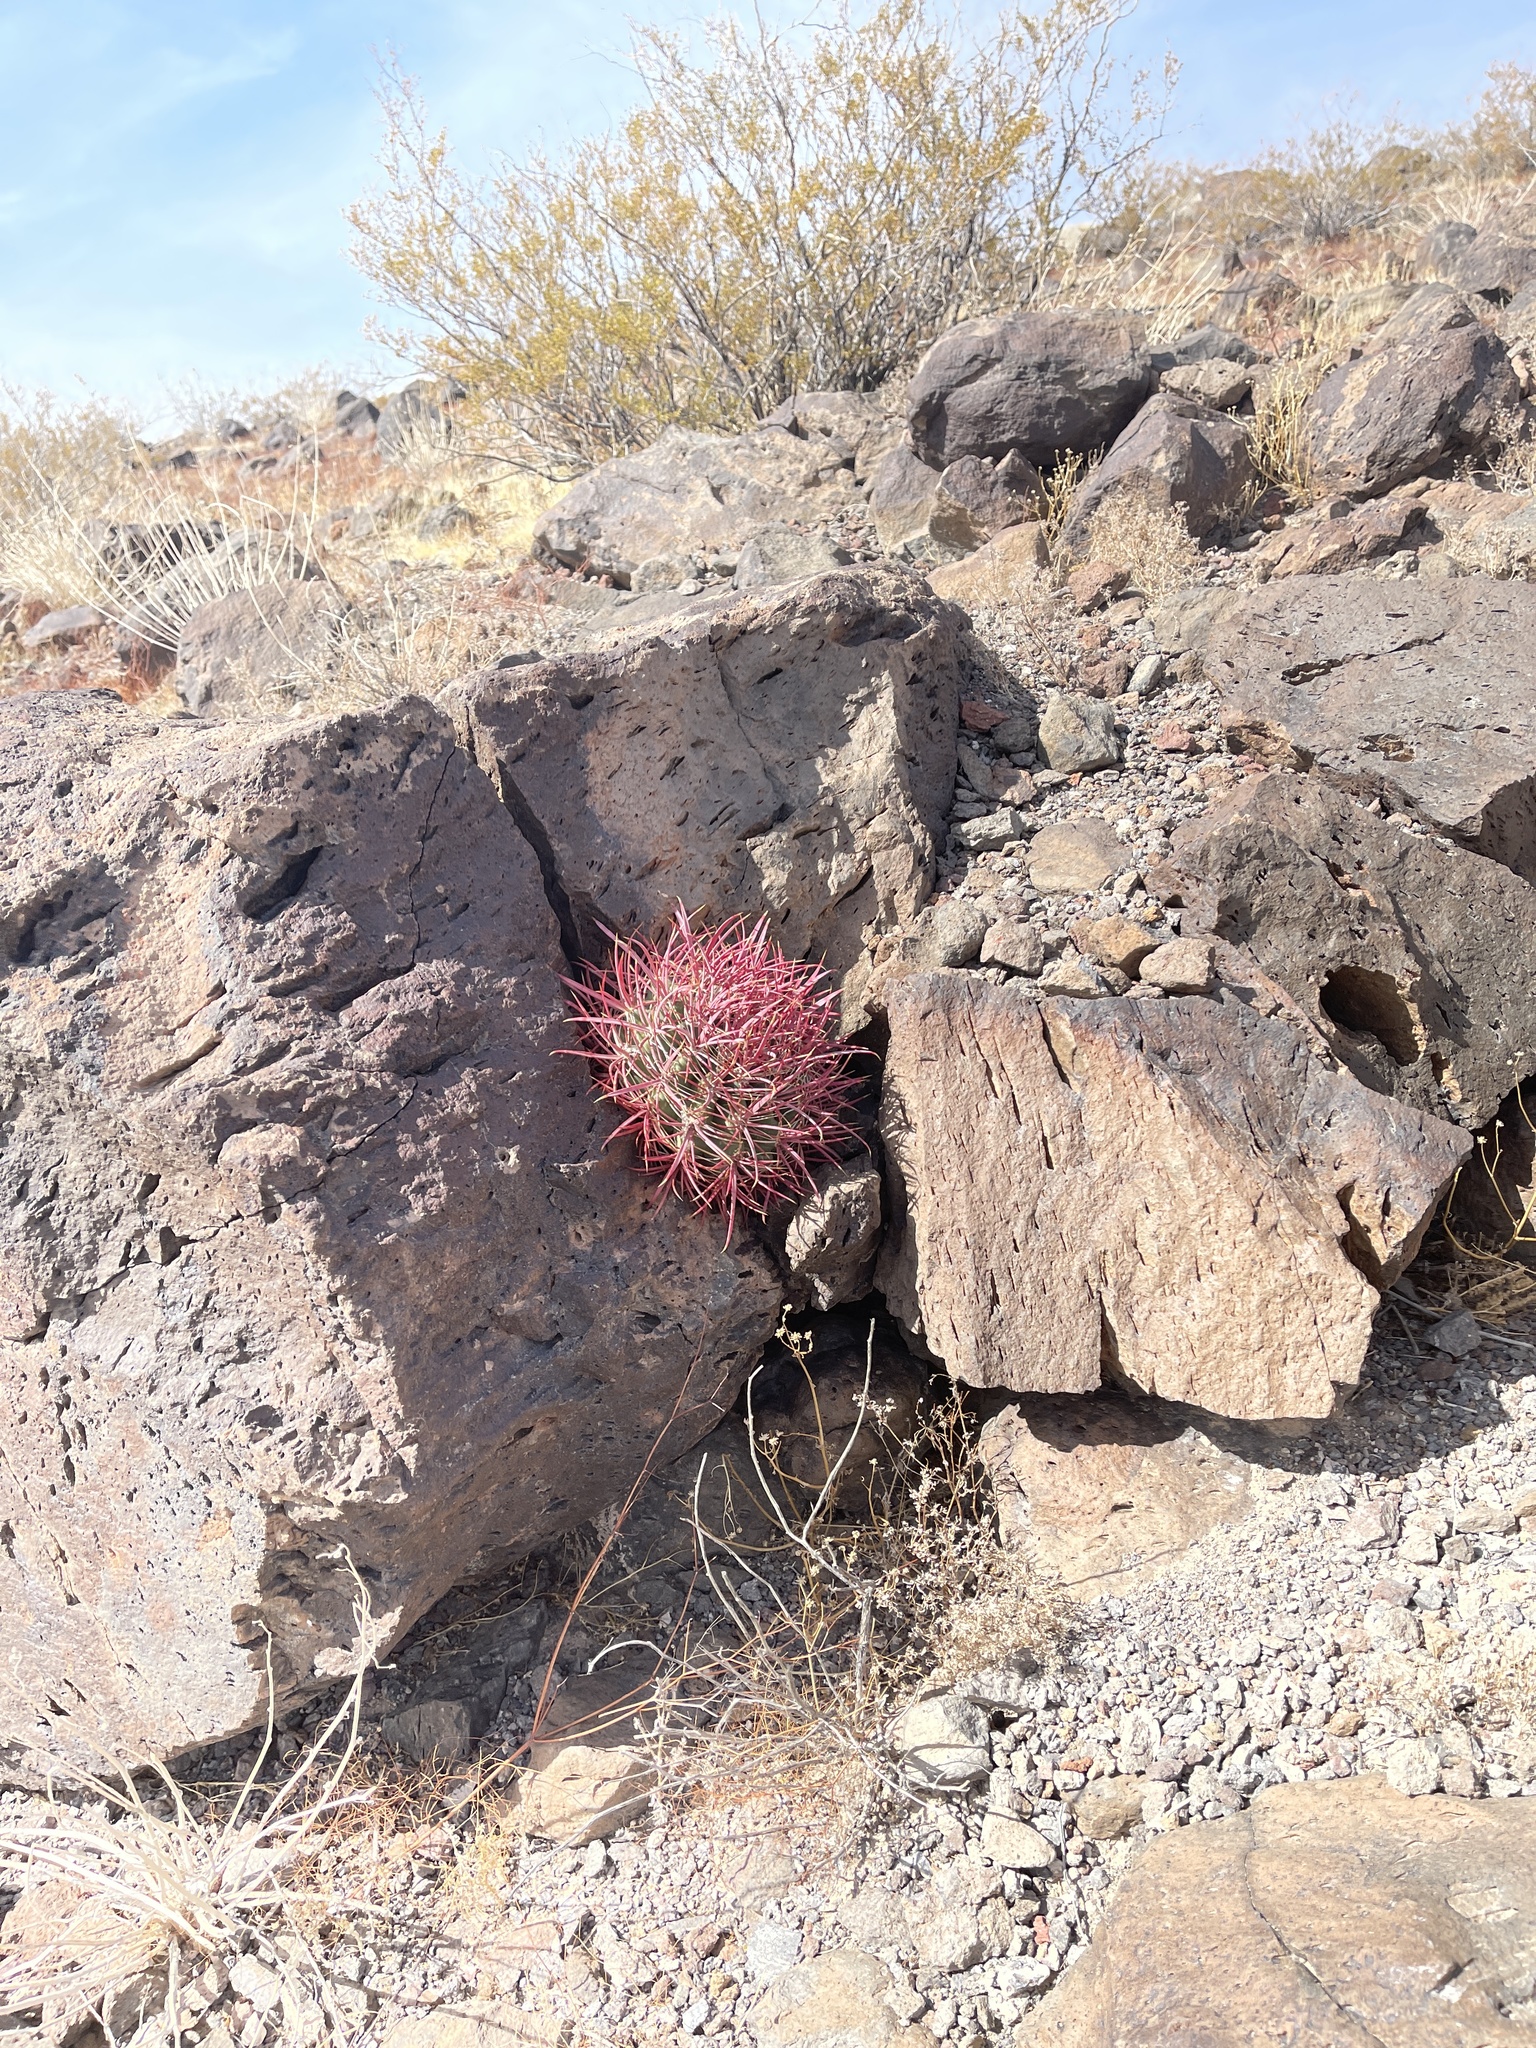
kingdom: Plantae
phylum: Tracheophyta
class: Magnoliopsida
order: Caryophyllales
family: Cactaceae
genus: Ferocactus
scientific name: Ferocactus cylindraceus
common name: California barrel cactus
